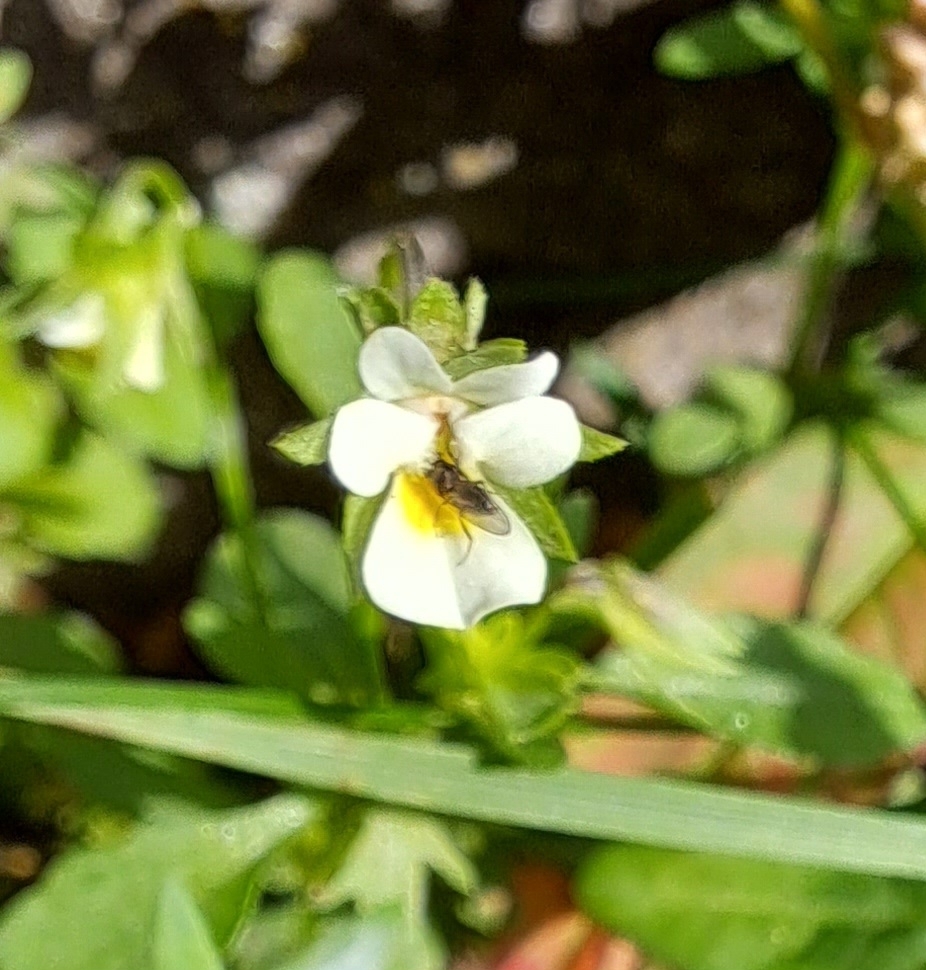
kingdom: Plantae
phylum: Tracheophyta
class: Magnoliopsida
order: Malpighiales
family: Violaceae
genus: Viola
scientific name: Viola arvensis
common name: Field pansy
